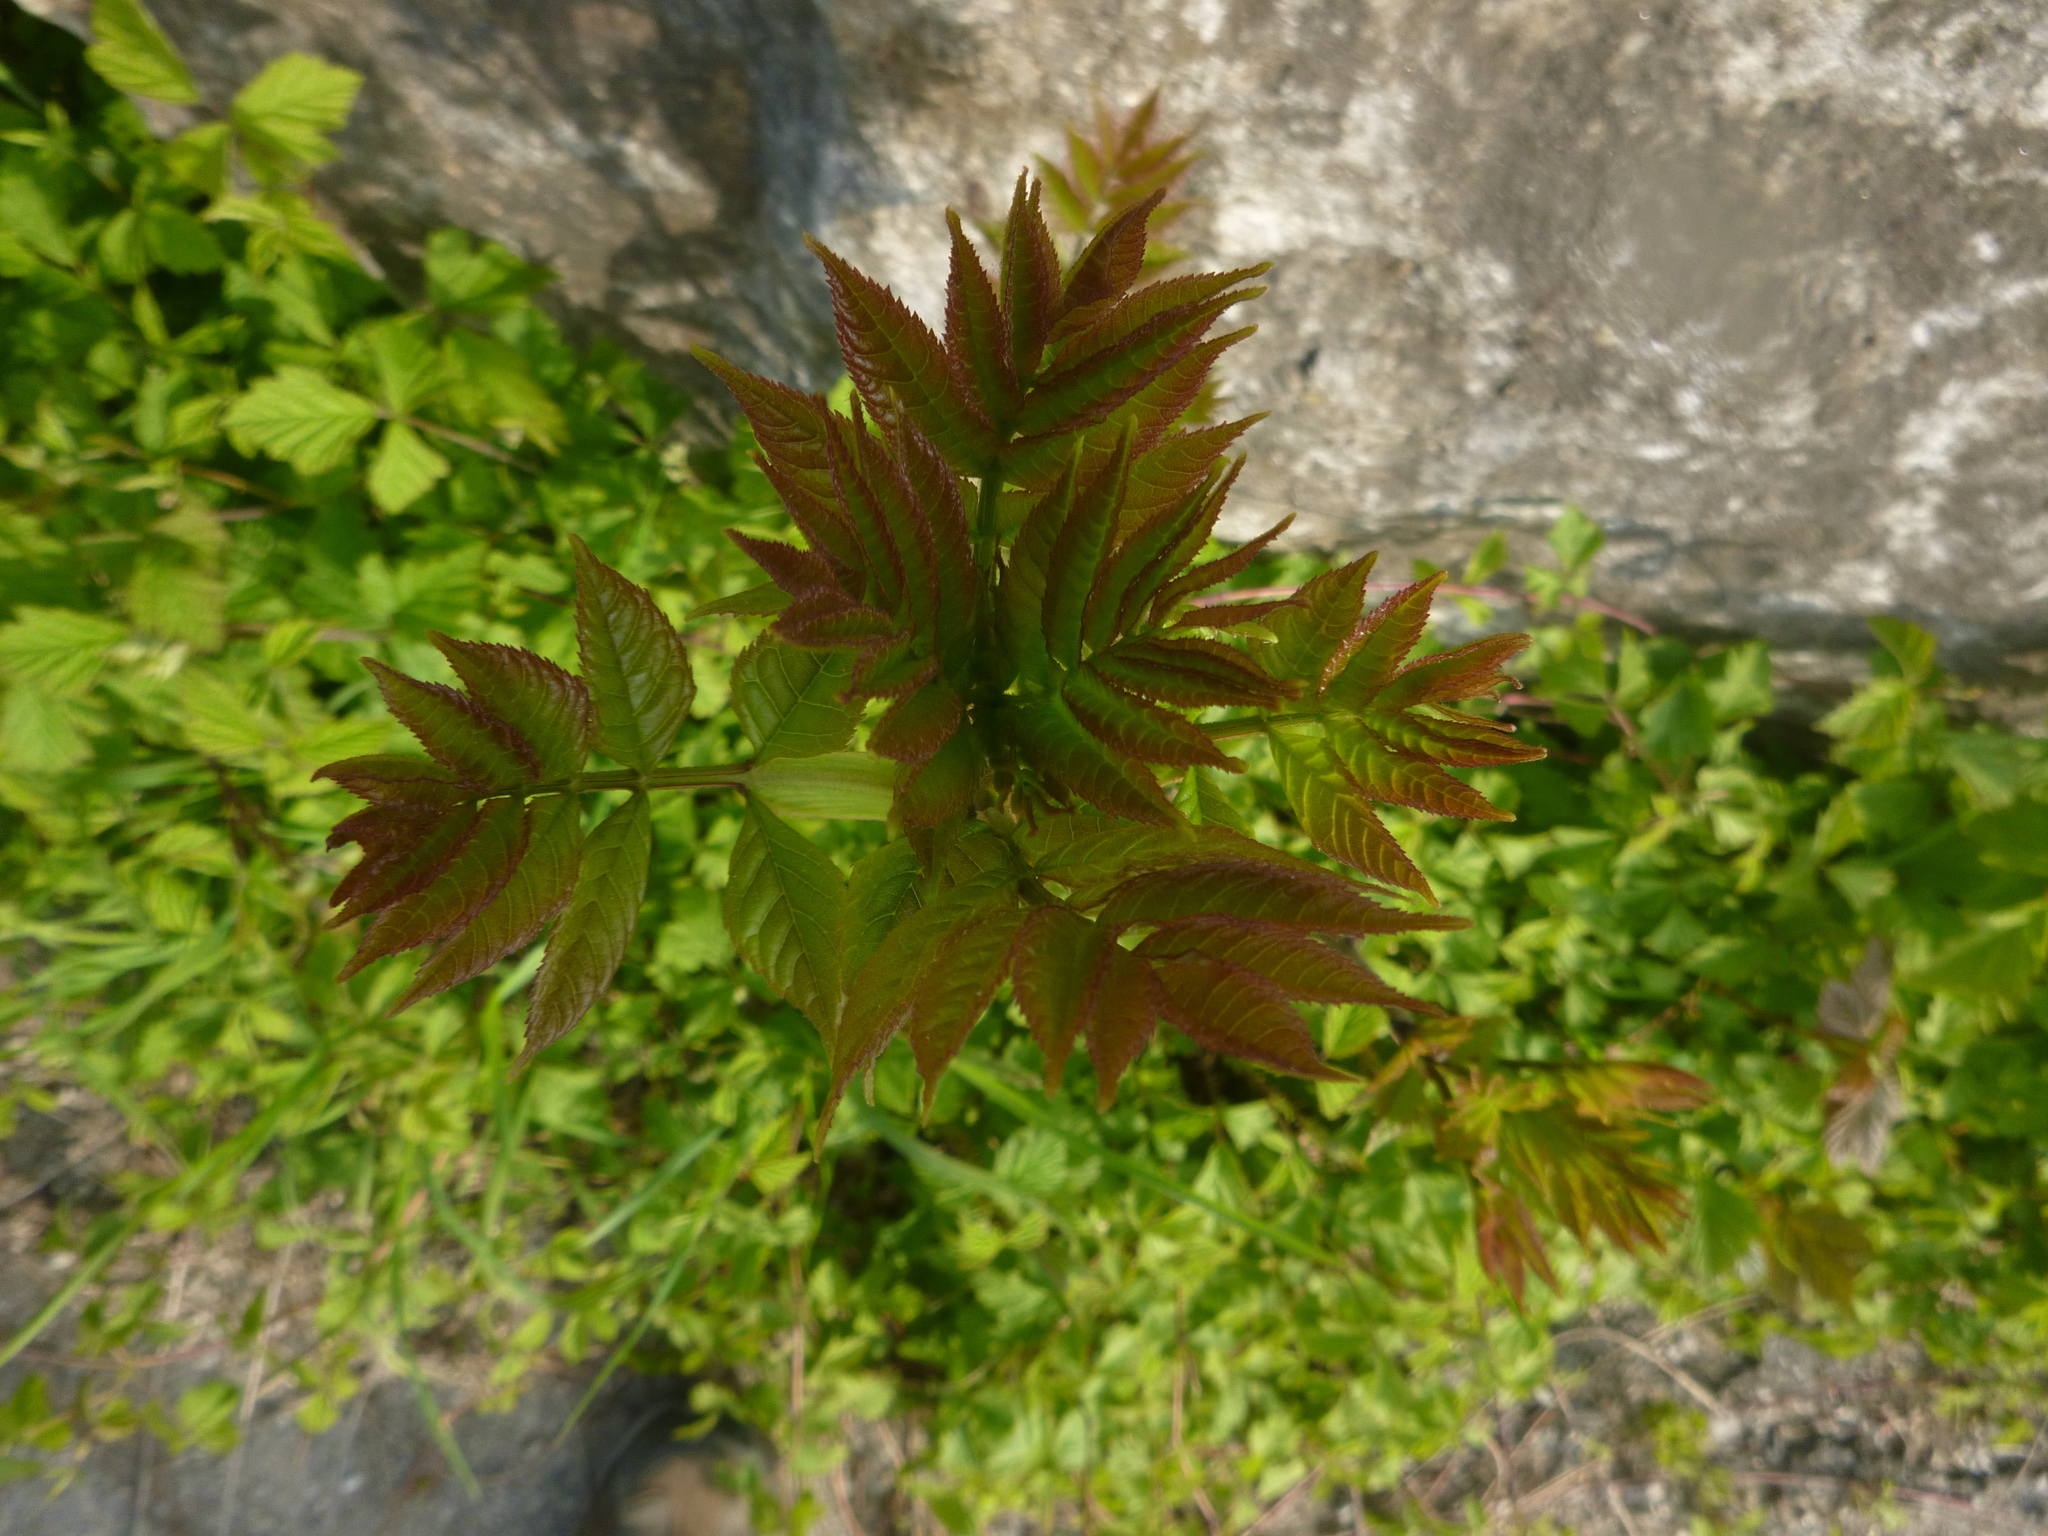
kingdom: Plantae
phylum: Tracheophyta
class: Magnoliopsida
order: Lamiales
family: Oleaceae
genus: Fraxinus
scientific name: Fraxinus excelsior
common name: European ash
